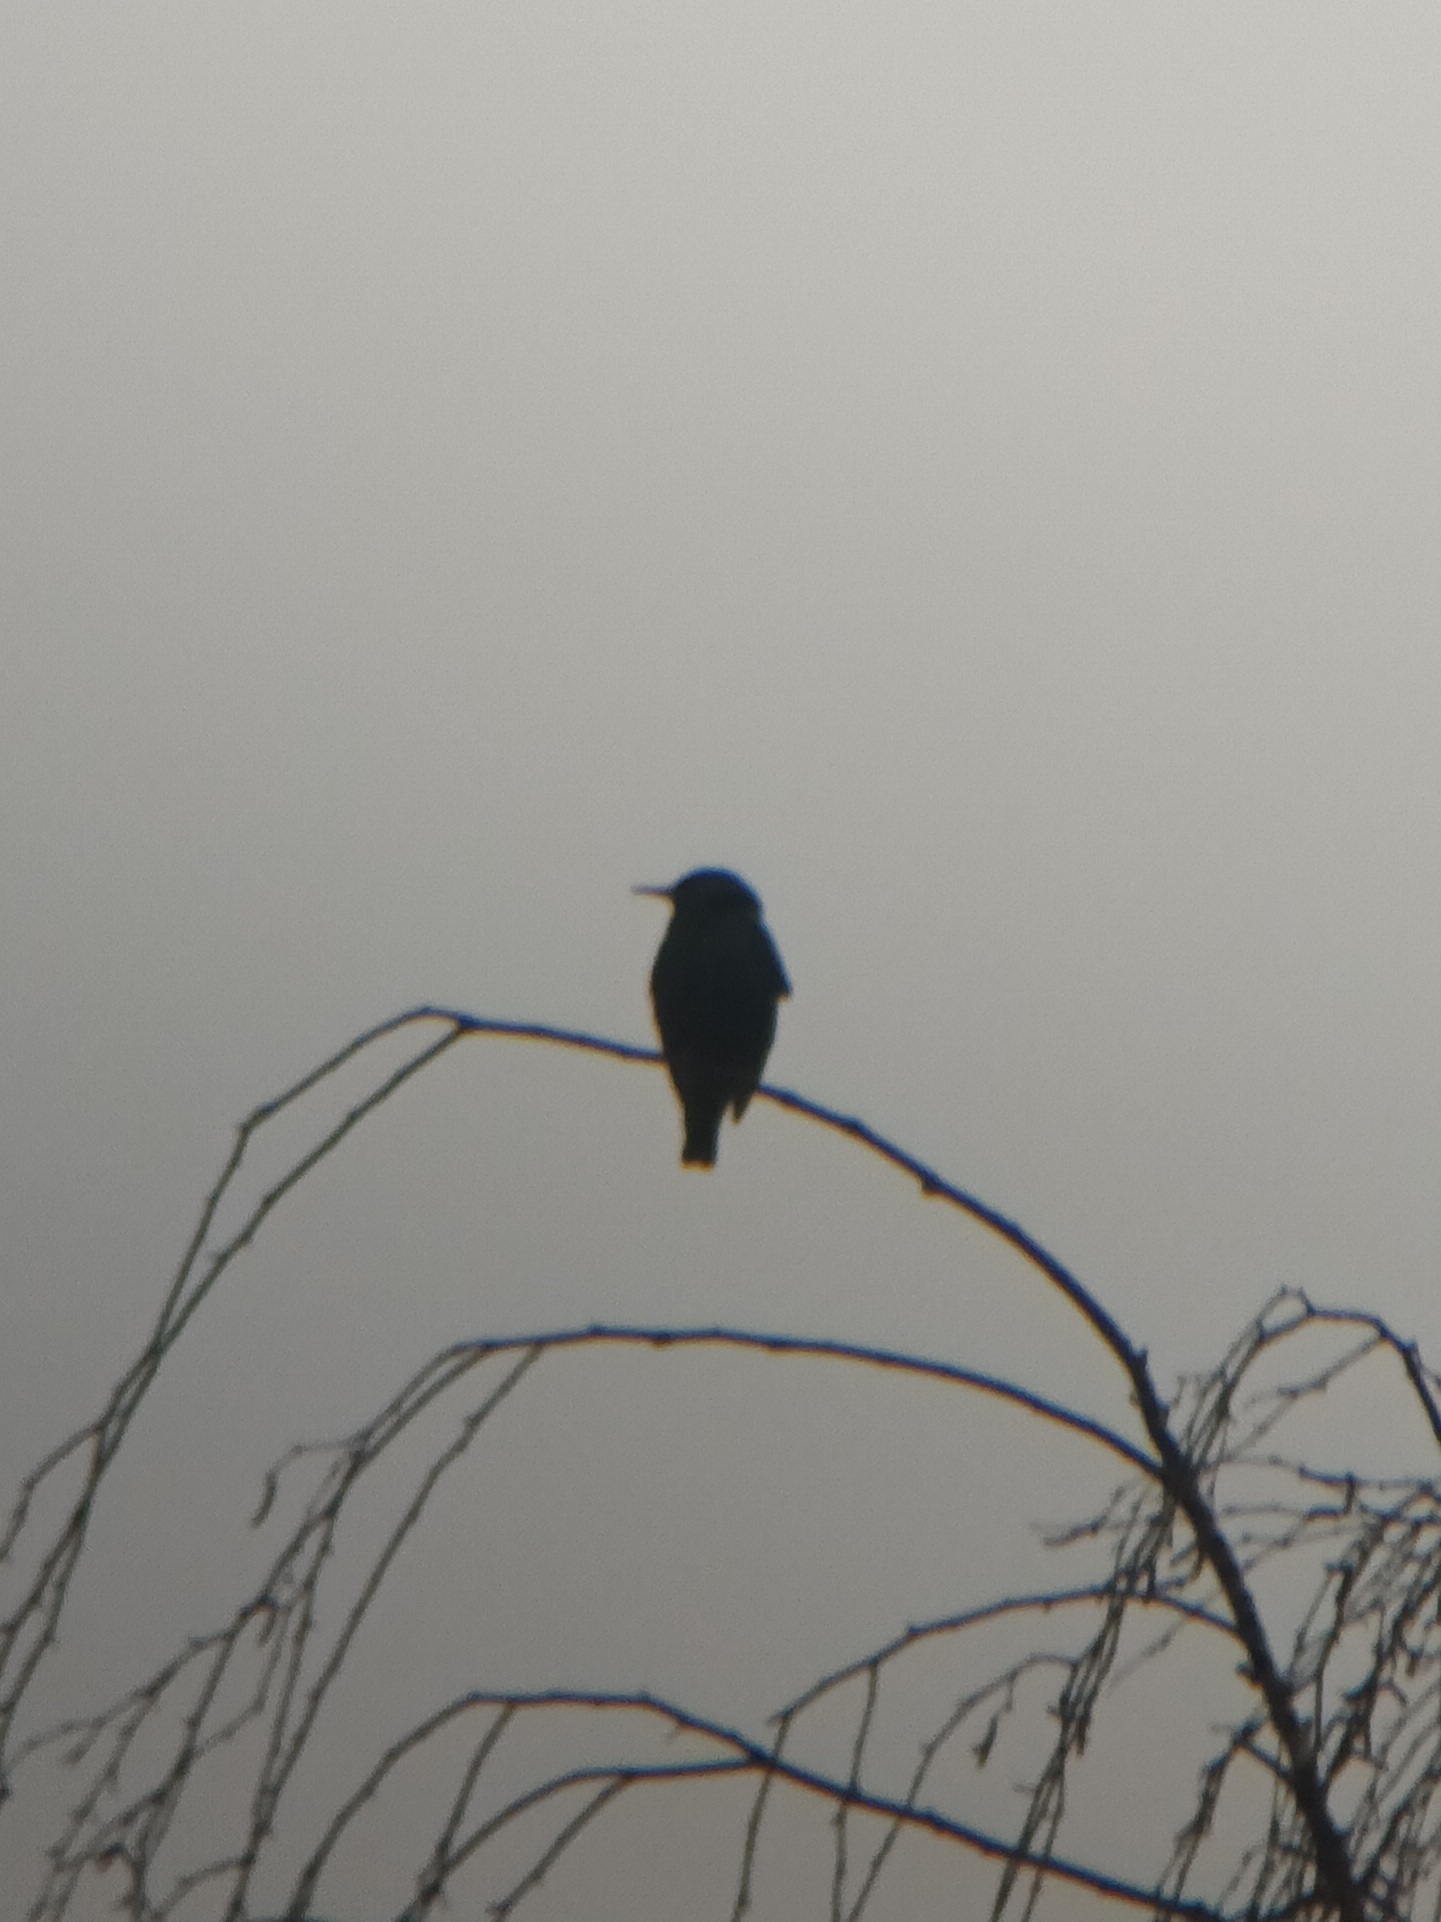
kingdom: Animalia
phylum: Chordata
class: Aves
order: Passeriformes
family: Sturnidae
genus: Sturnus
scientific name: Sturnus vulgaris
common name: Common starling
